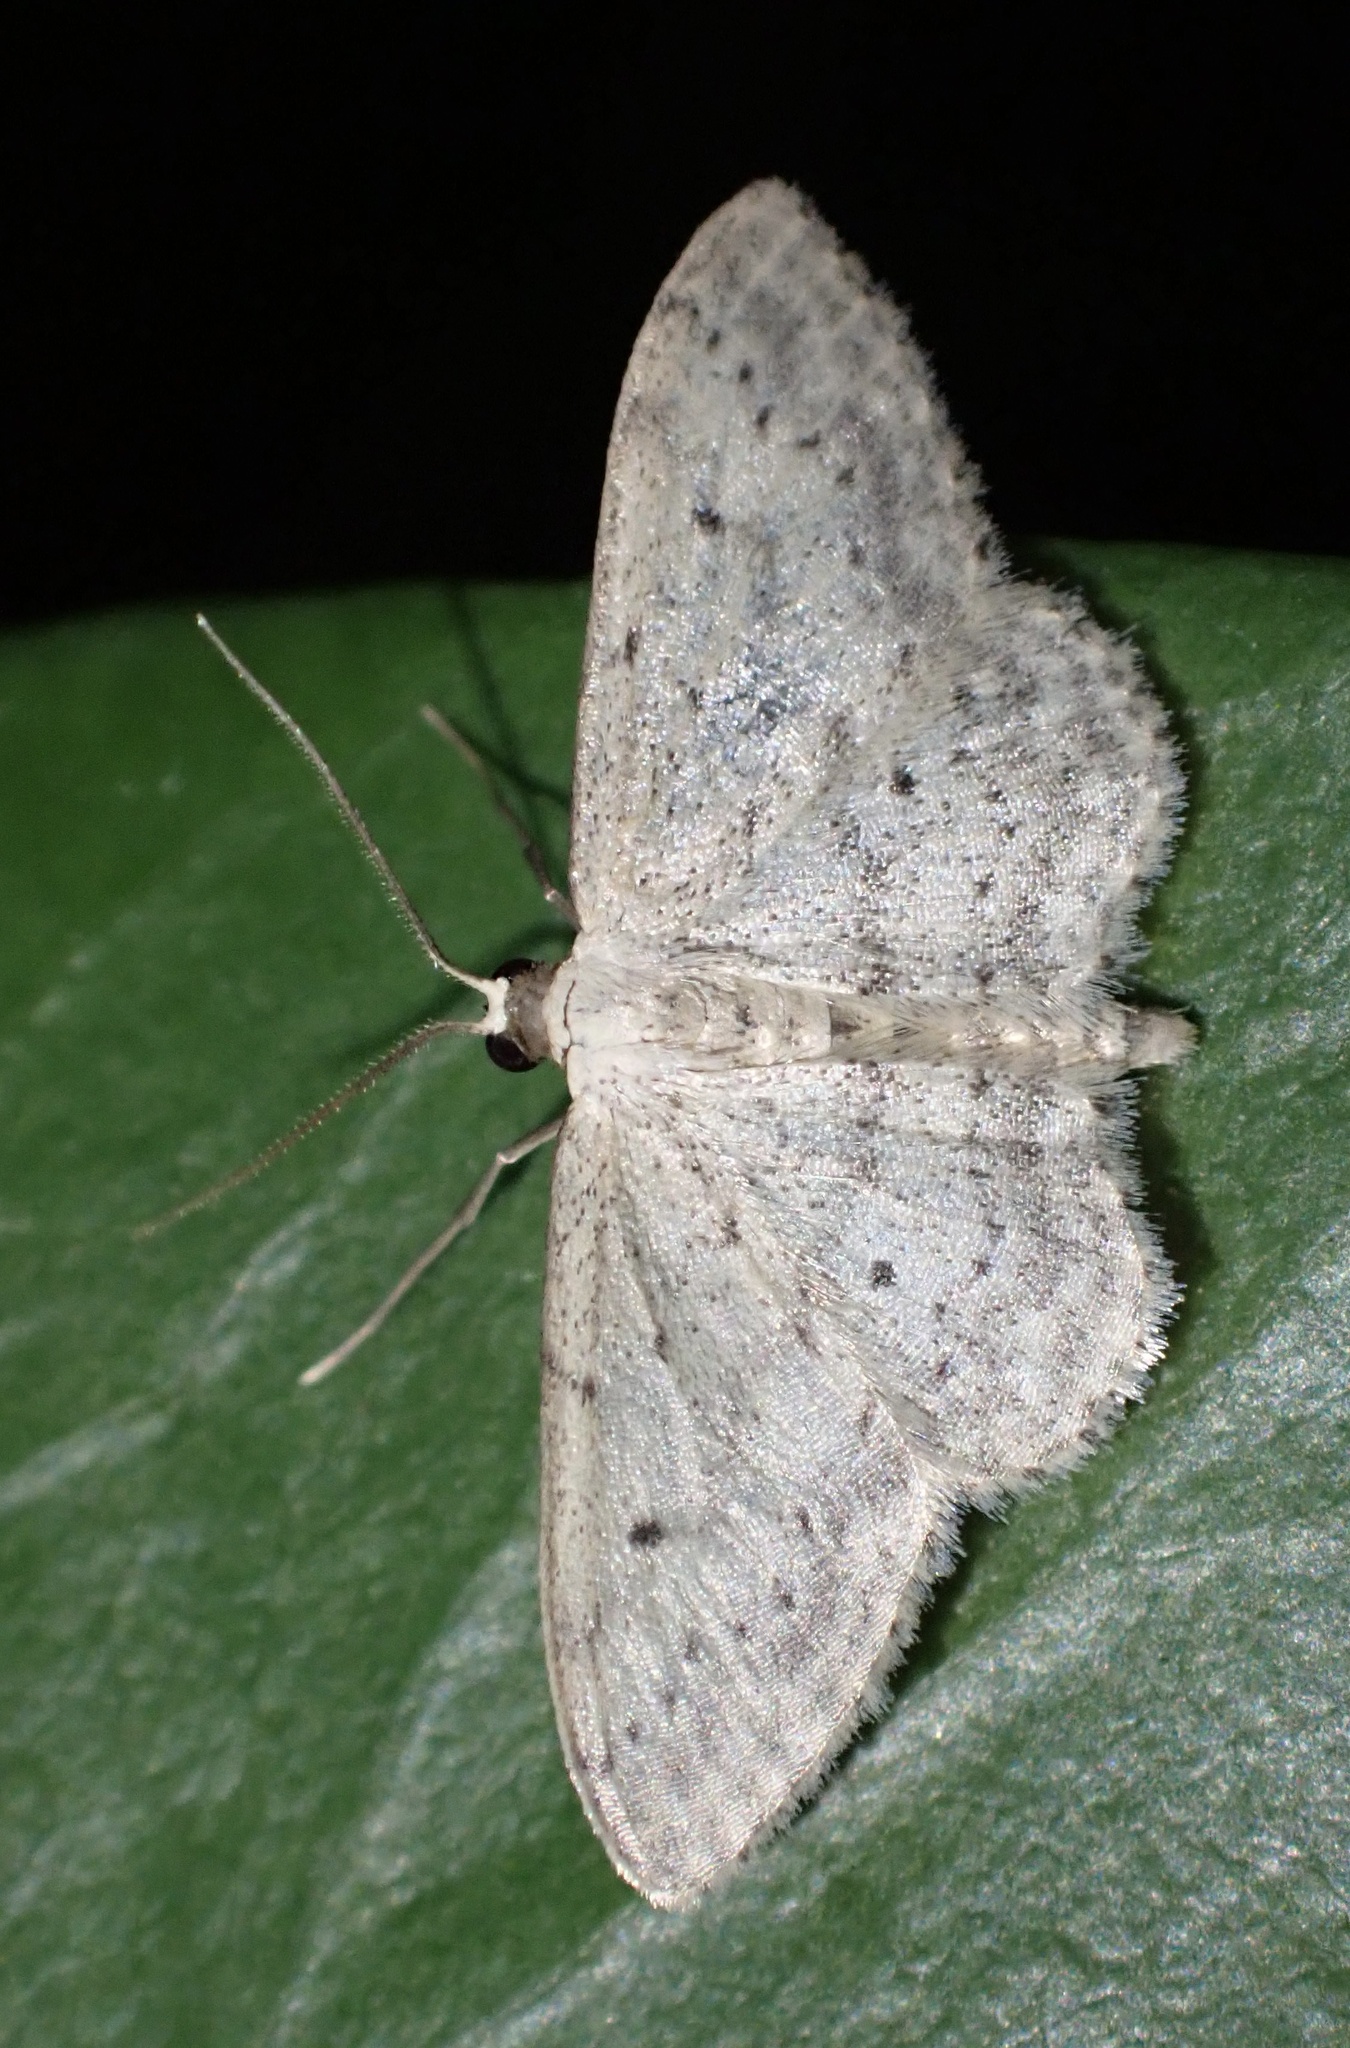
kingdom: Animalia
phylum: Arthropoda
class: Insecta
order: Lepidoptera
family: Geometridae
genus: Idaea
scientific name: Idaea seriata
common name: Small dusty wave
